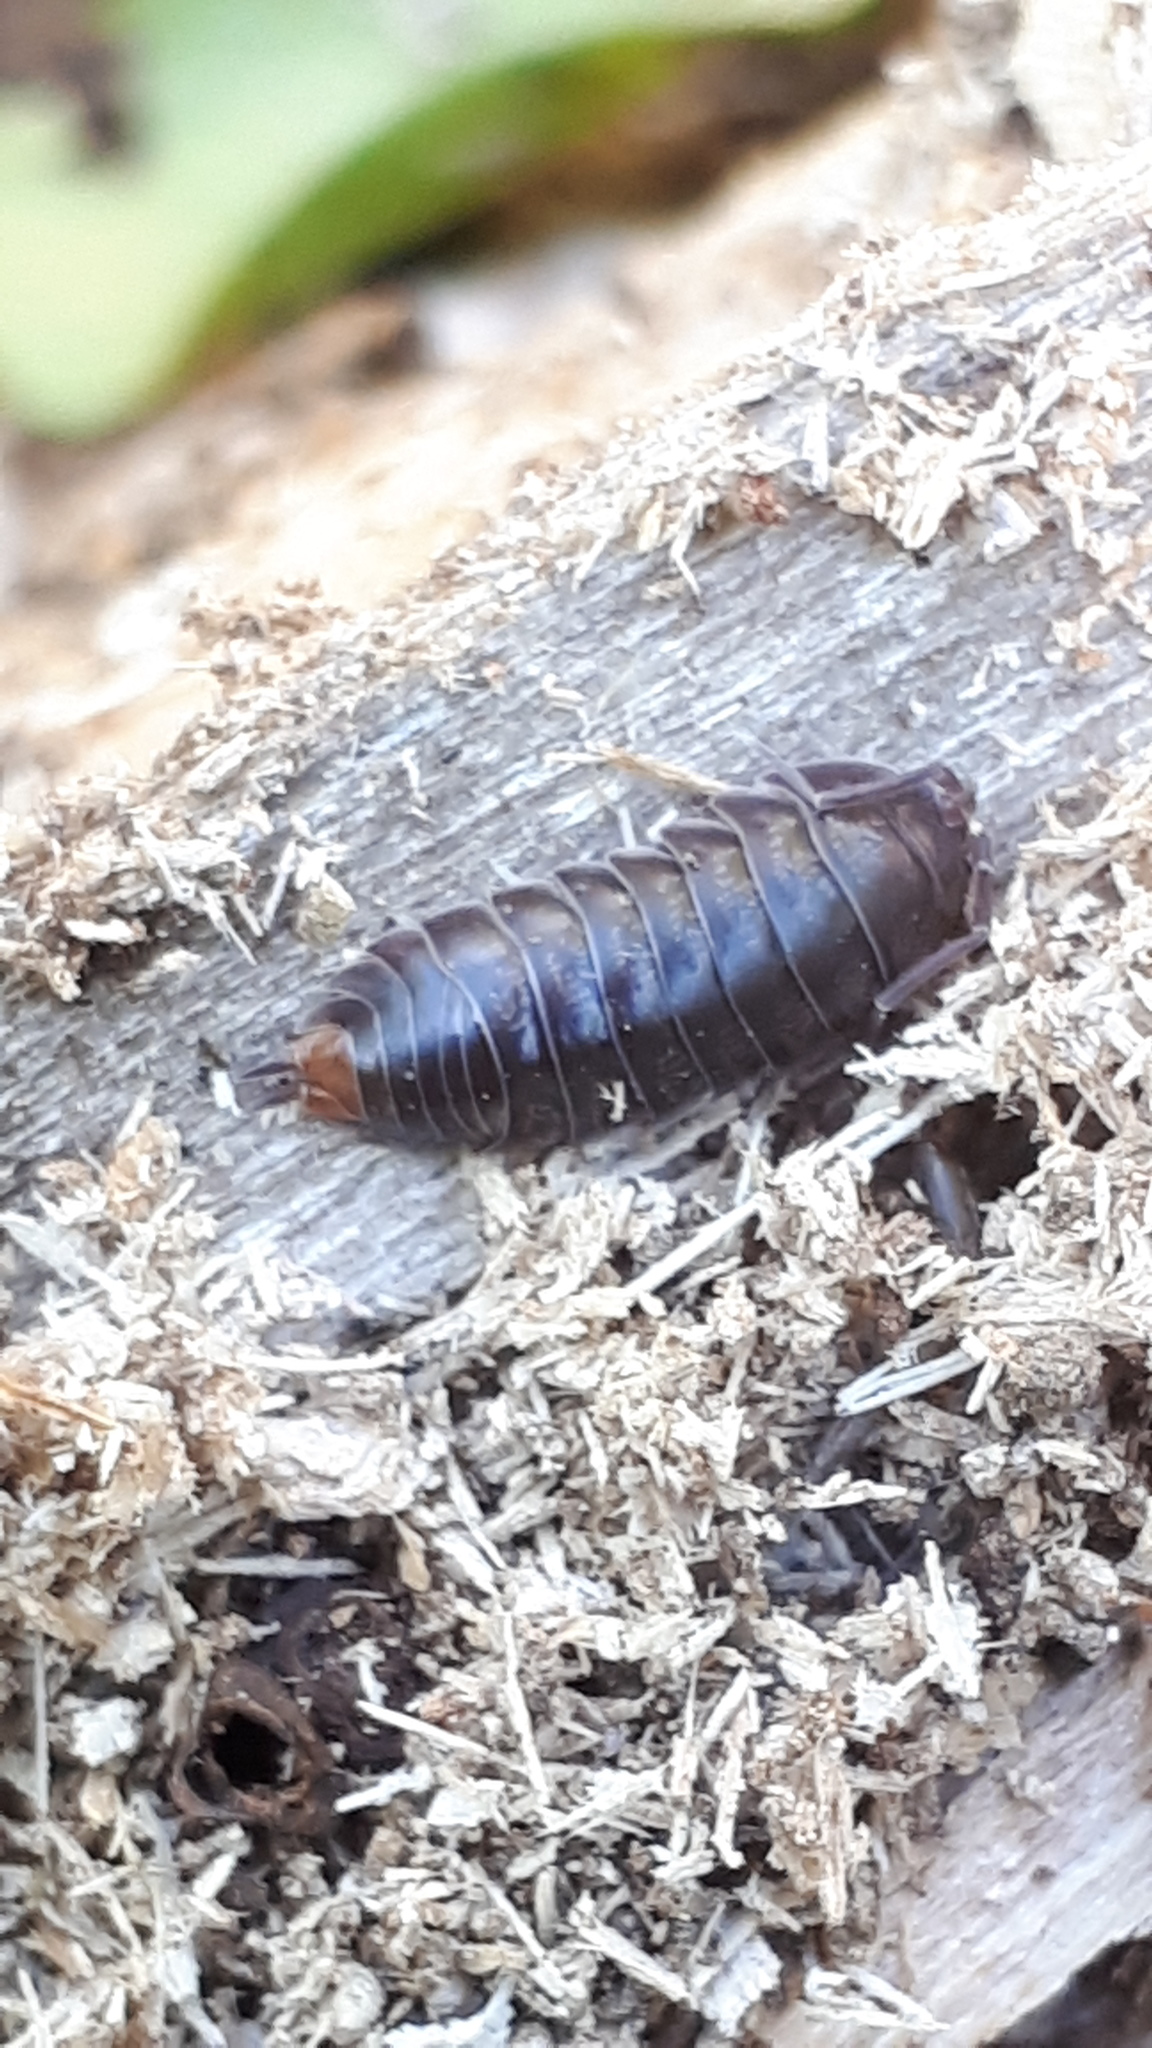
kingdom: Animalia
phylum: Arthropoda
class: Malacostraca
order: Isopoda
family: Cylisticidae
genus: Cylisticus
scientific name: Cylisticus convexus
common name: Curly woodlouse
